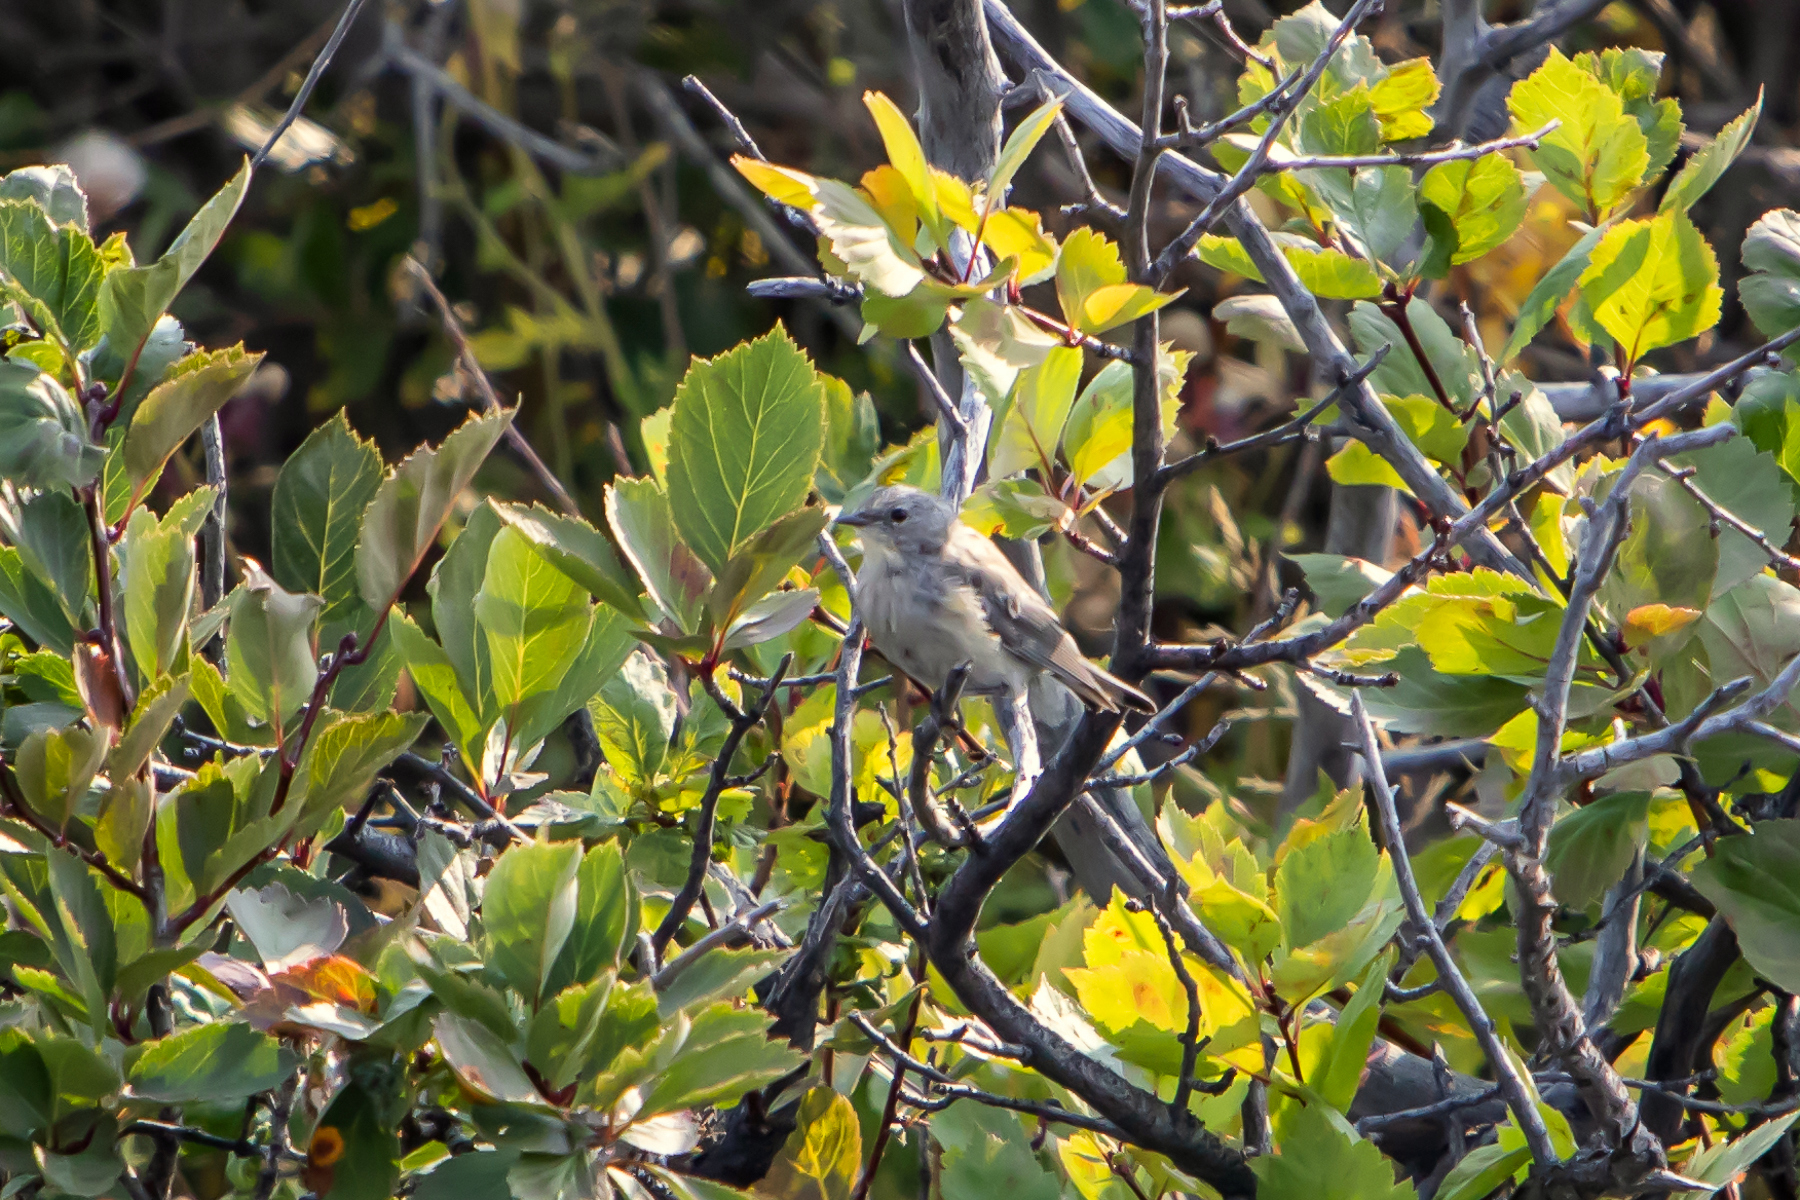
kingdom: Animalia
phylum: Chordata
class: Aves
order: Passeriformes
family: Parulidae
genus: Setophaga
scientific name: Setophaga coronata
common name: Myrtle warbler
